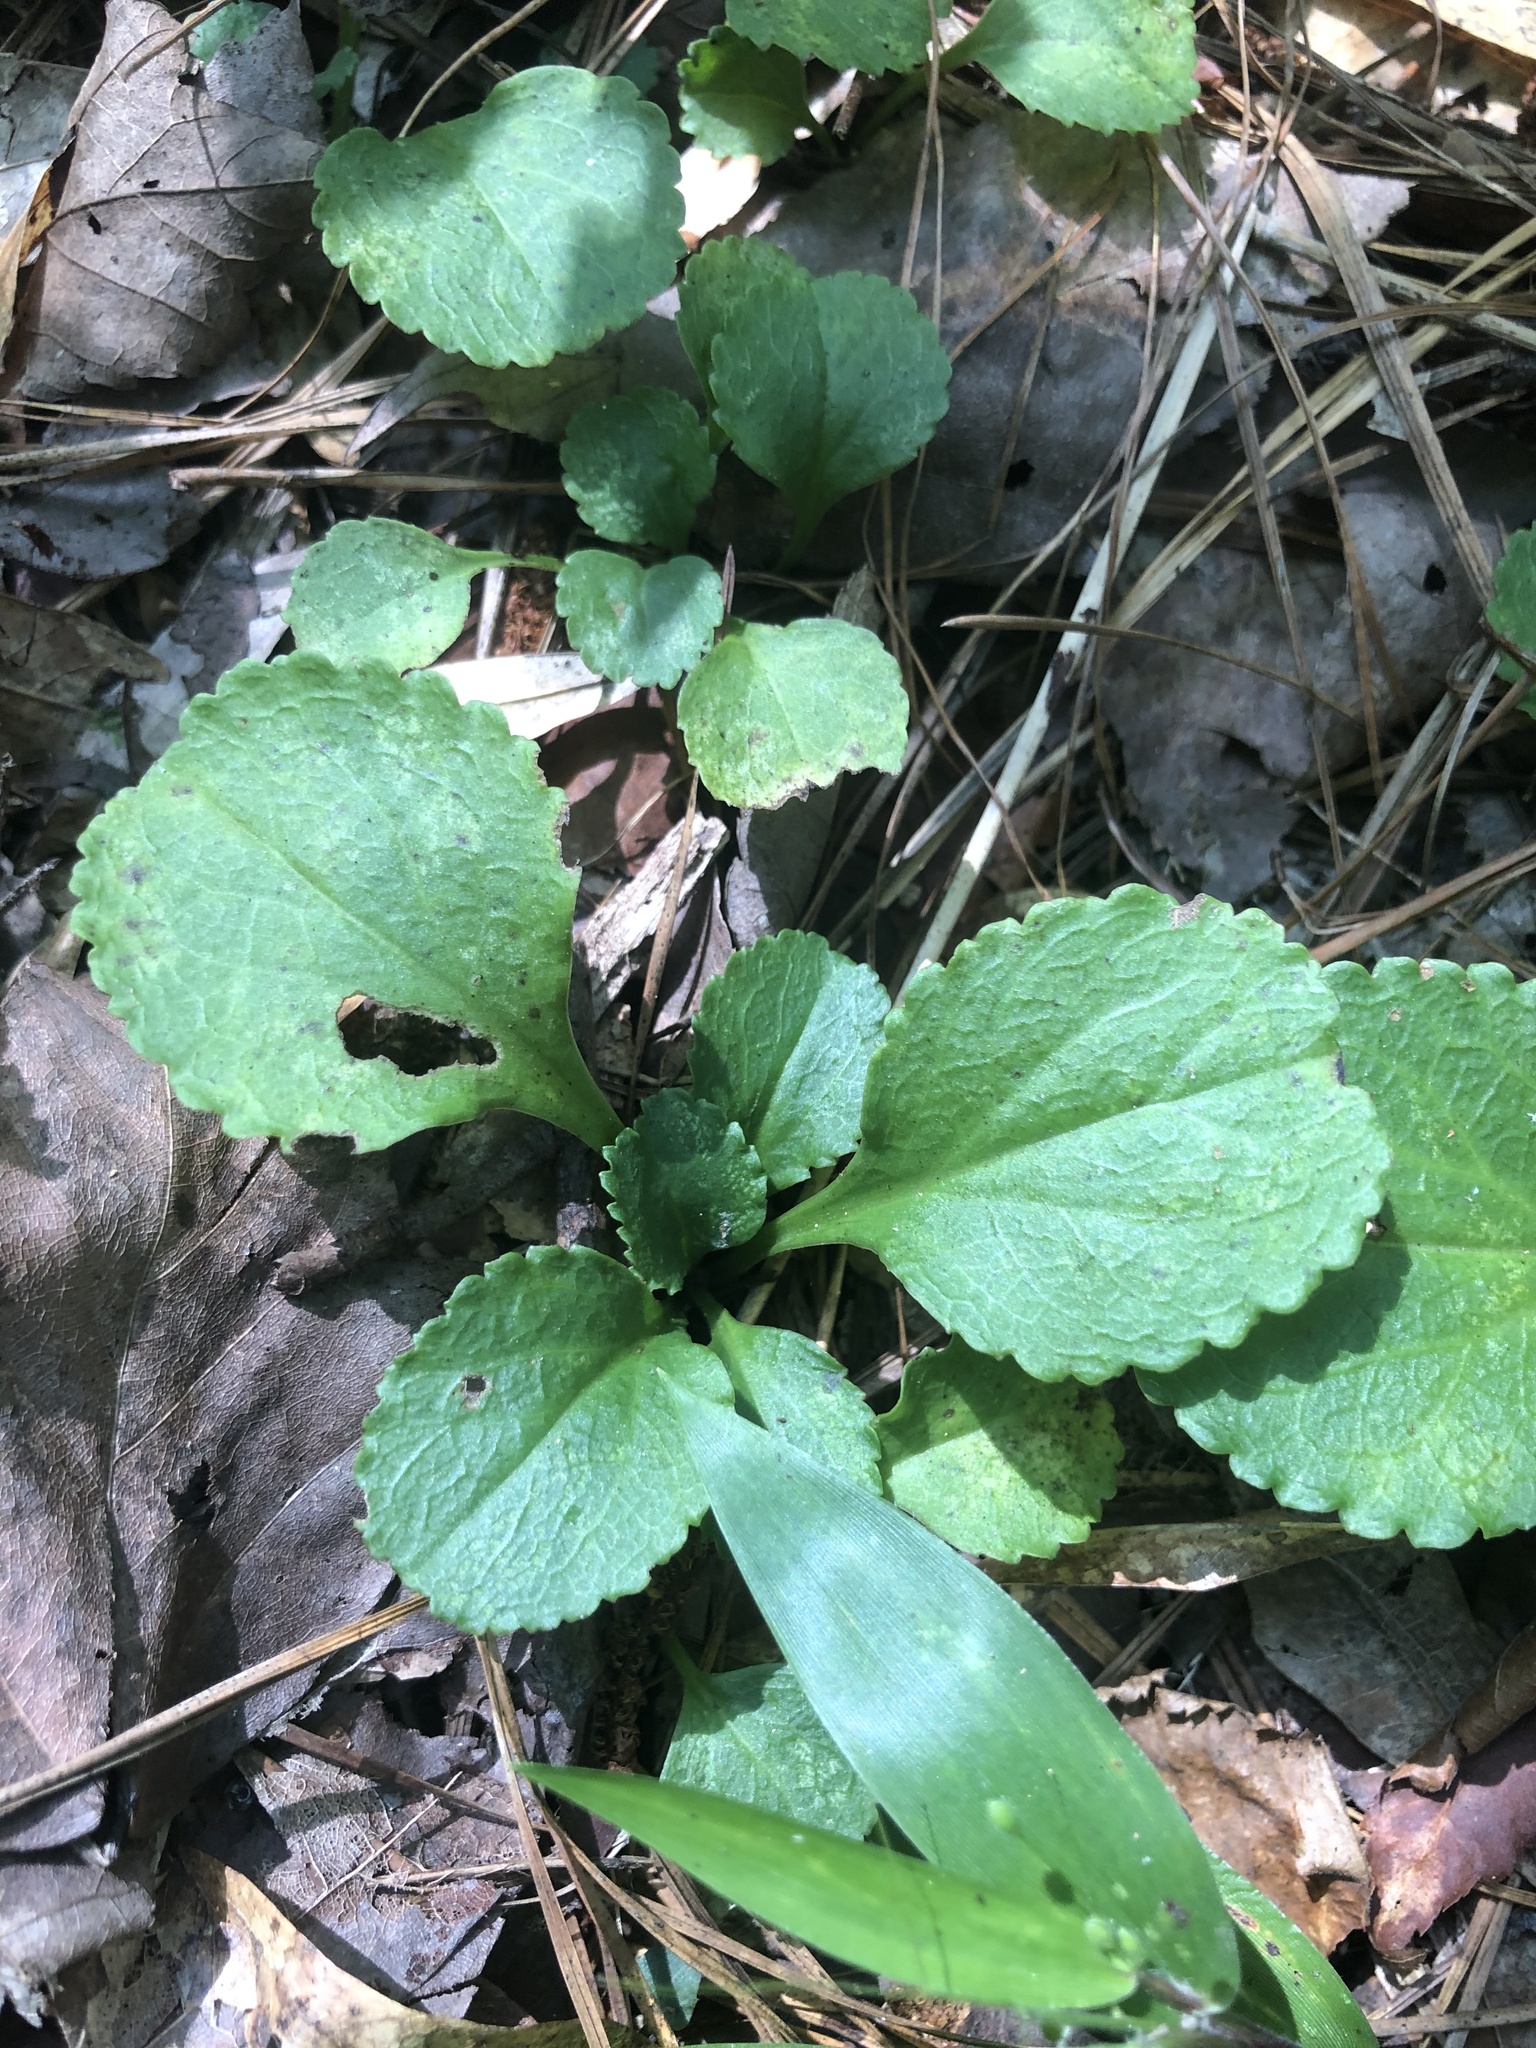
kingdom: Plantae
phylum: Tracheophyta
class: Magnoliopsida
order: Asterales
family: Asteraceae
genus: Packera
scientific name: Packera obovata
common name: Round-leaf ragwort
